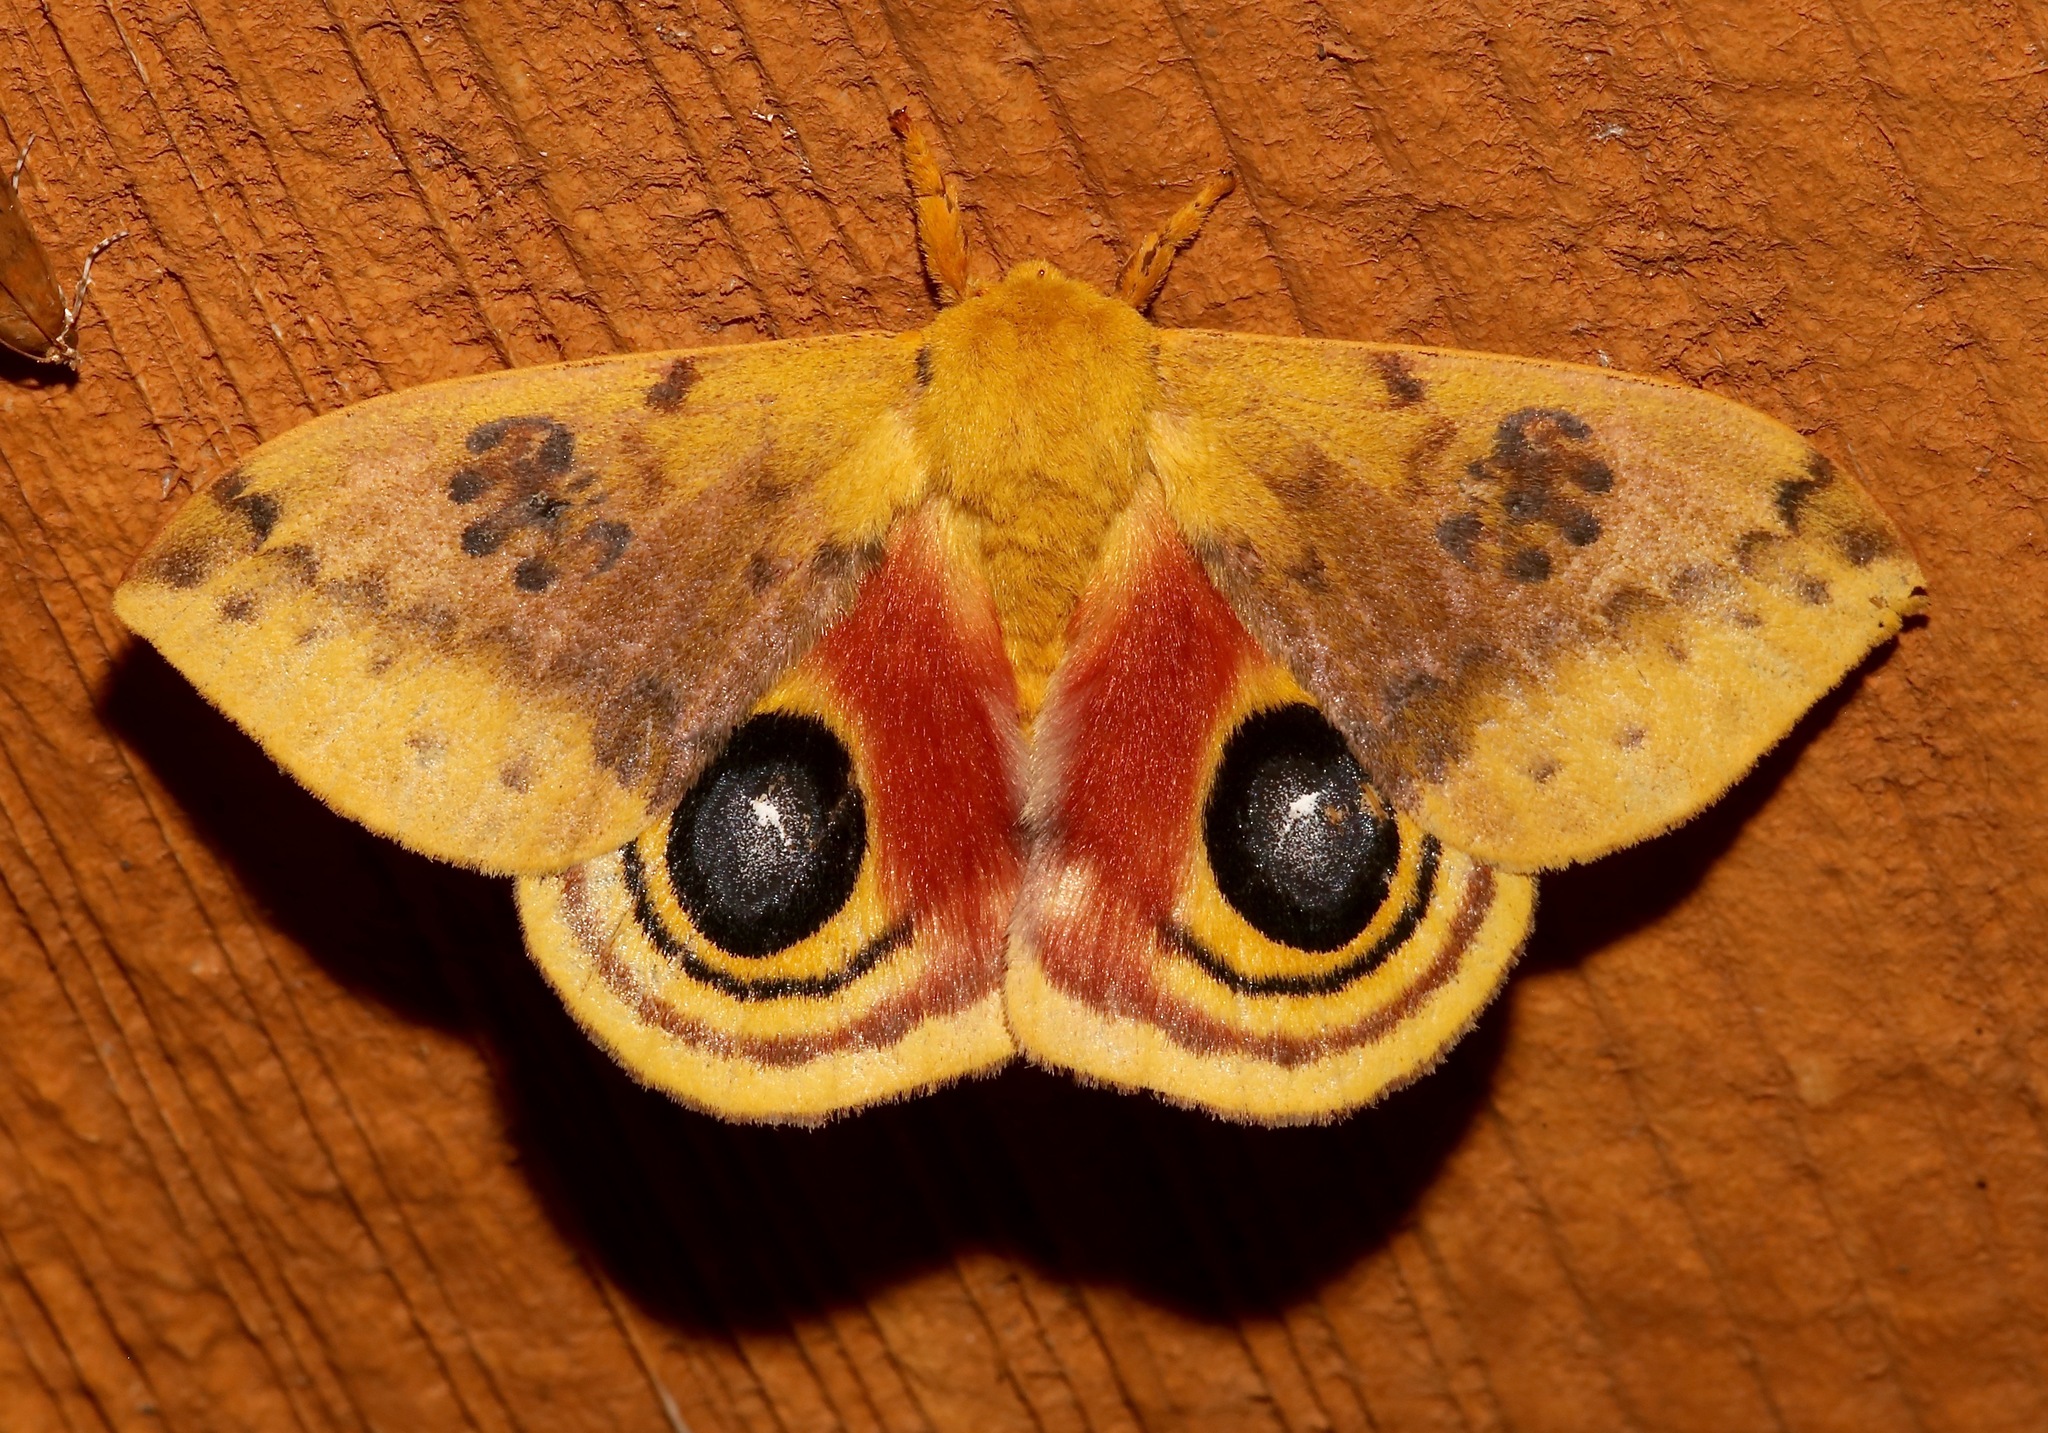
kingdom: Animalia
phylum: Arthropoda
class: Insecta
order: Lepidoptera
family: Saturniidae
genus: Automeris
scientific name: Automeris io
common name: Io moth
